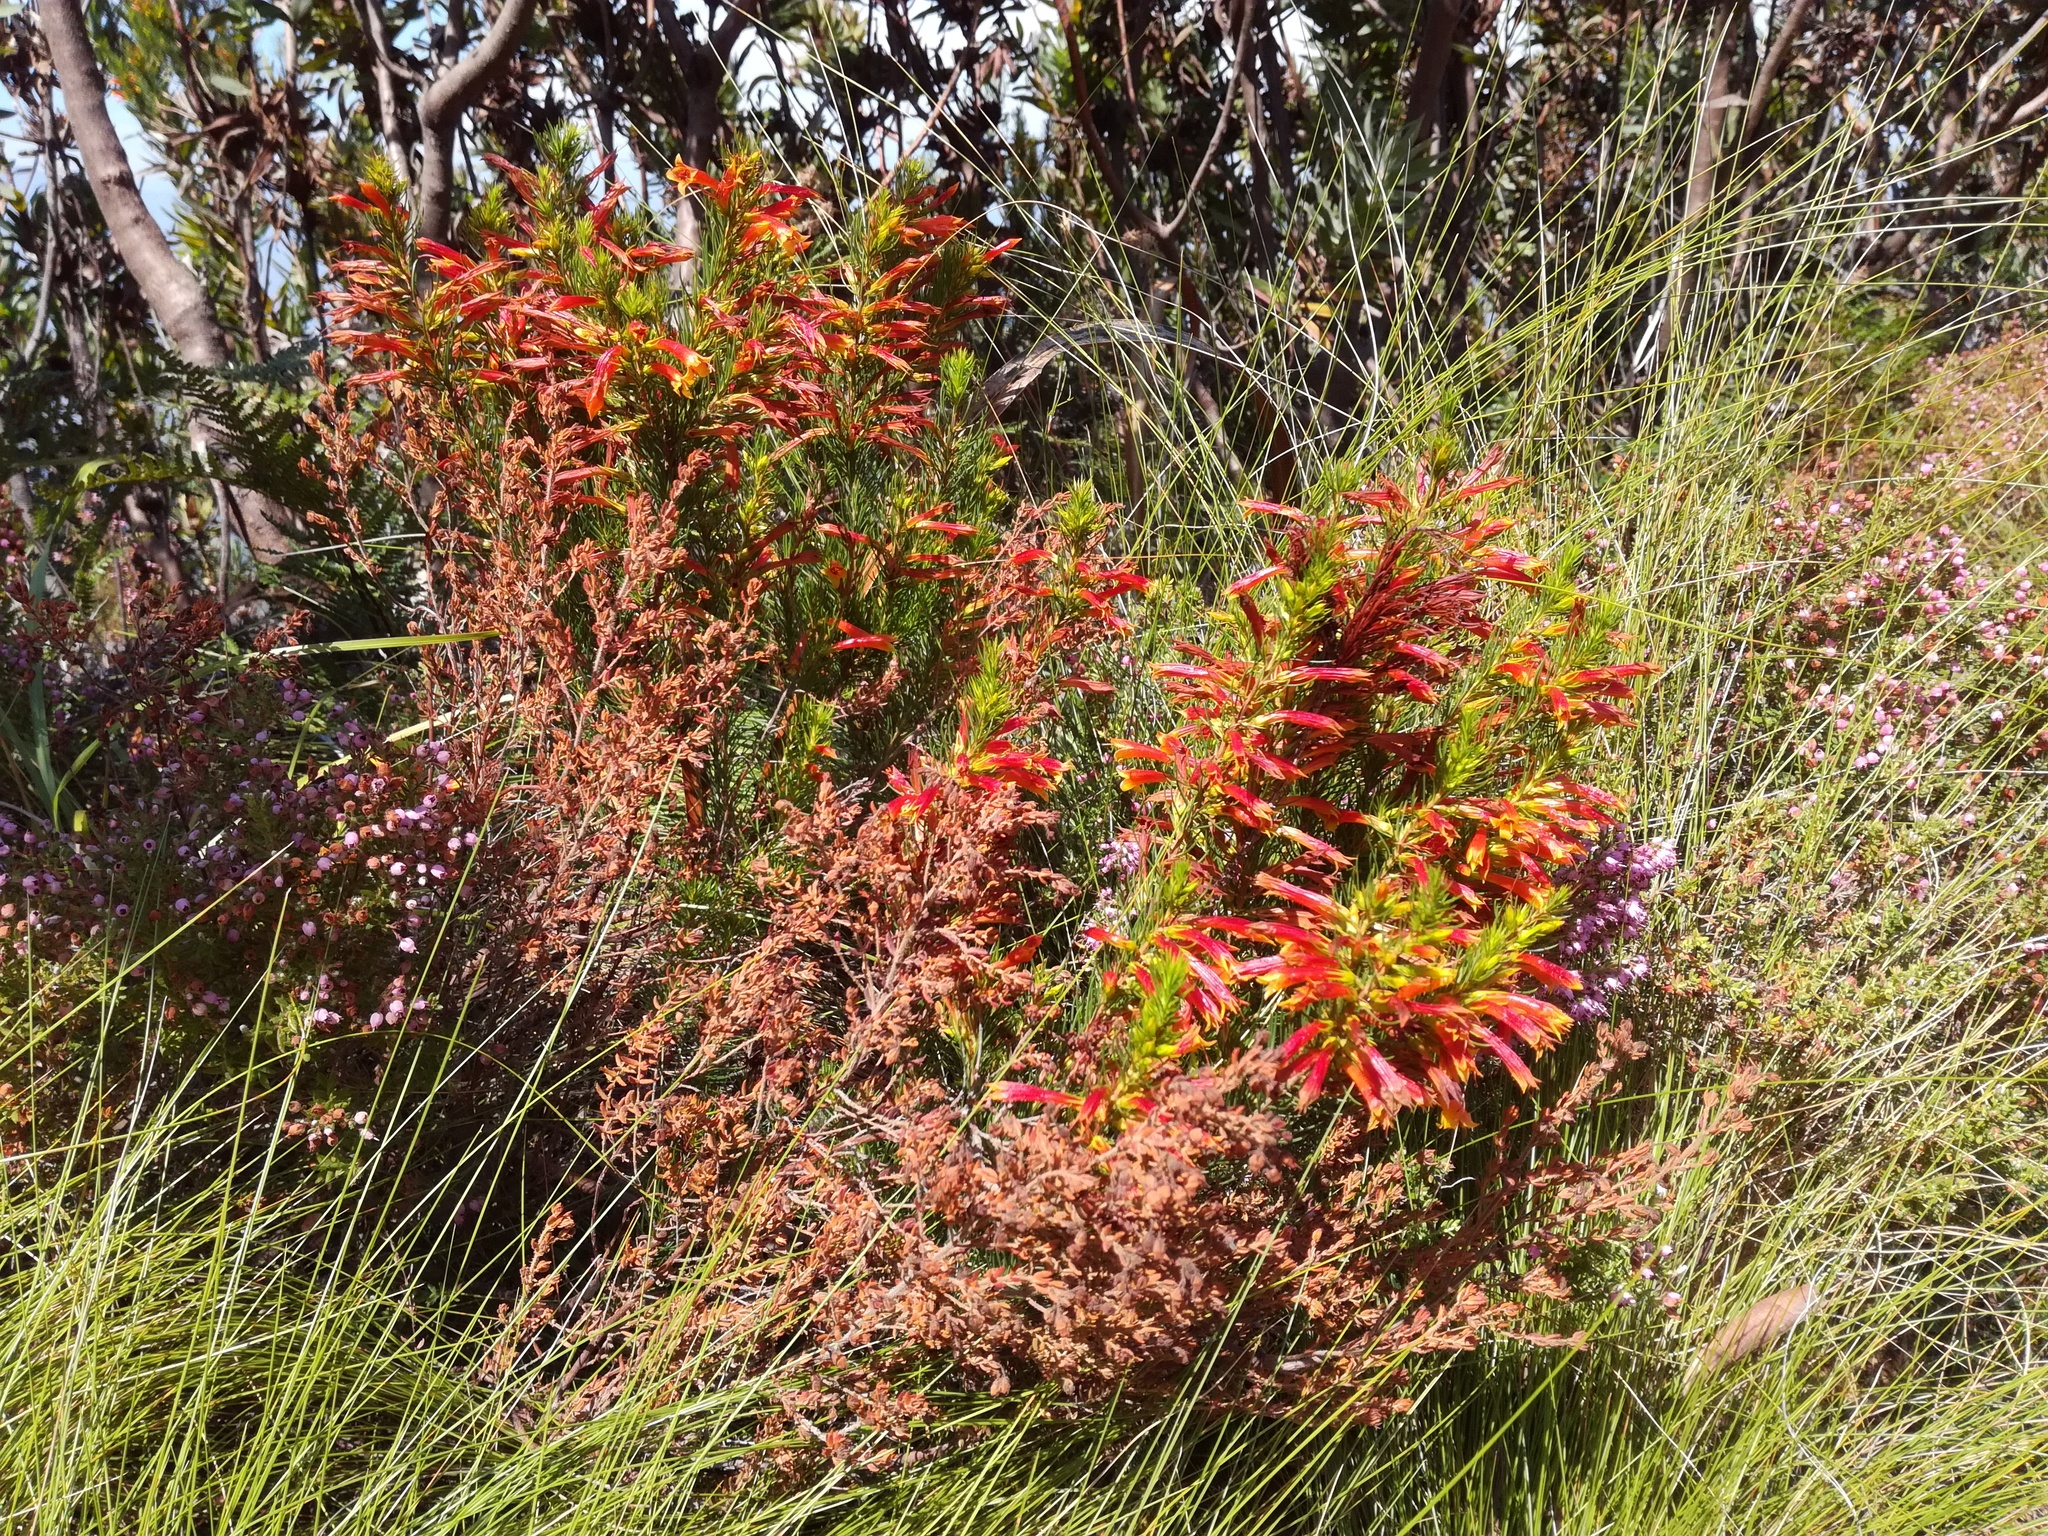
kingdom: Plantae
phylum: Tracheophyta
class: Magnoliopsida
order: Ericales
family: Ericaceae
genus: Erica
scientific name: Erica grandiflora
